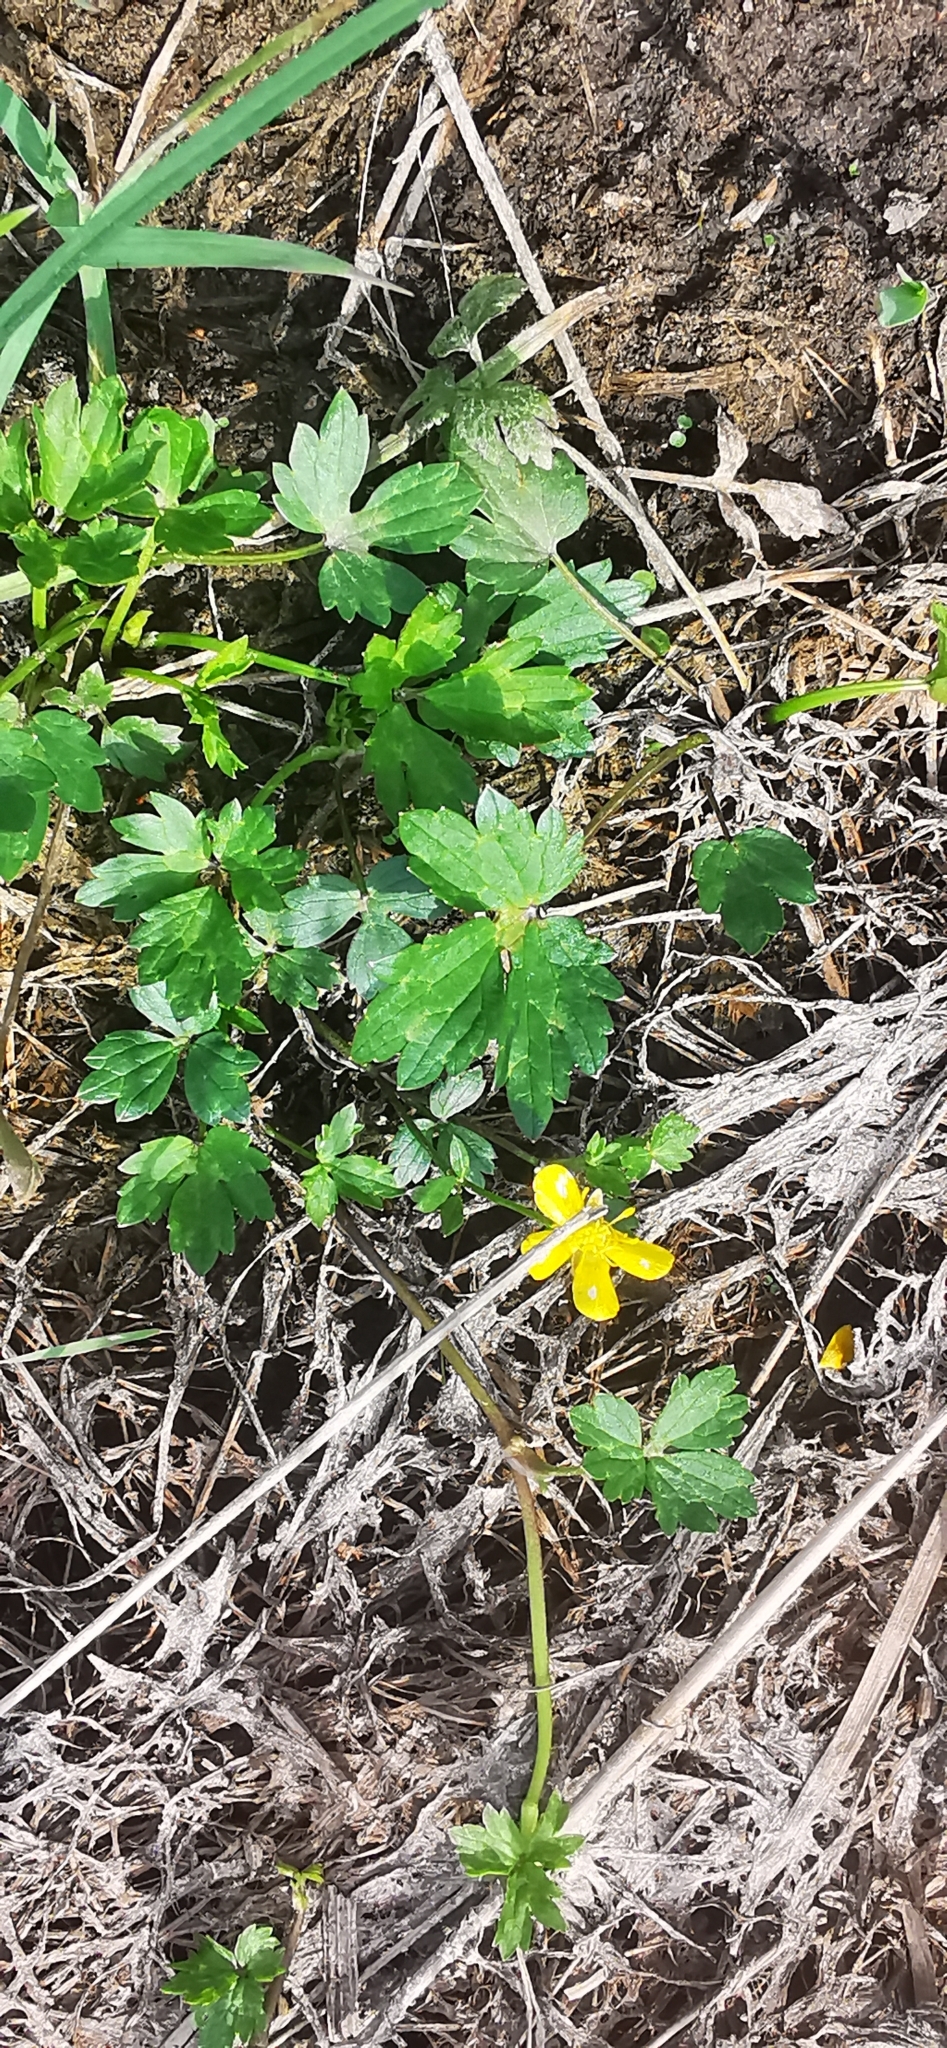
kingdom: Plantae
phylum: Tracheophyta
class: Magnoliopsida
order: Ranunculales
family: Ranunculaceae
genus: Ranunculus
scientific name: Ranunculus repens
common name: Creeping buttercup
